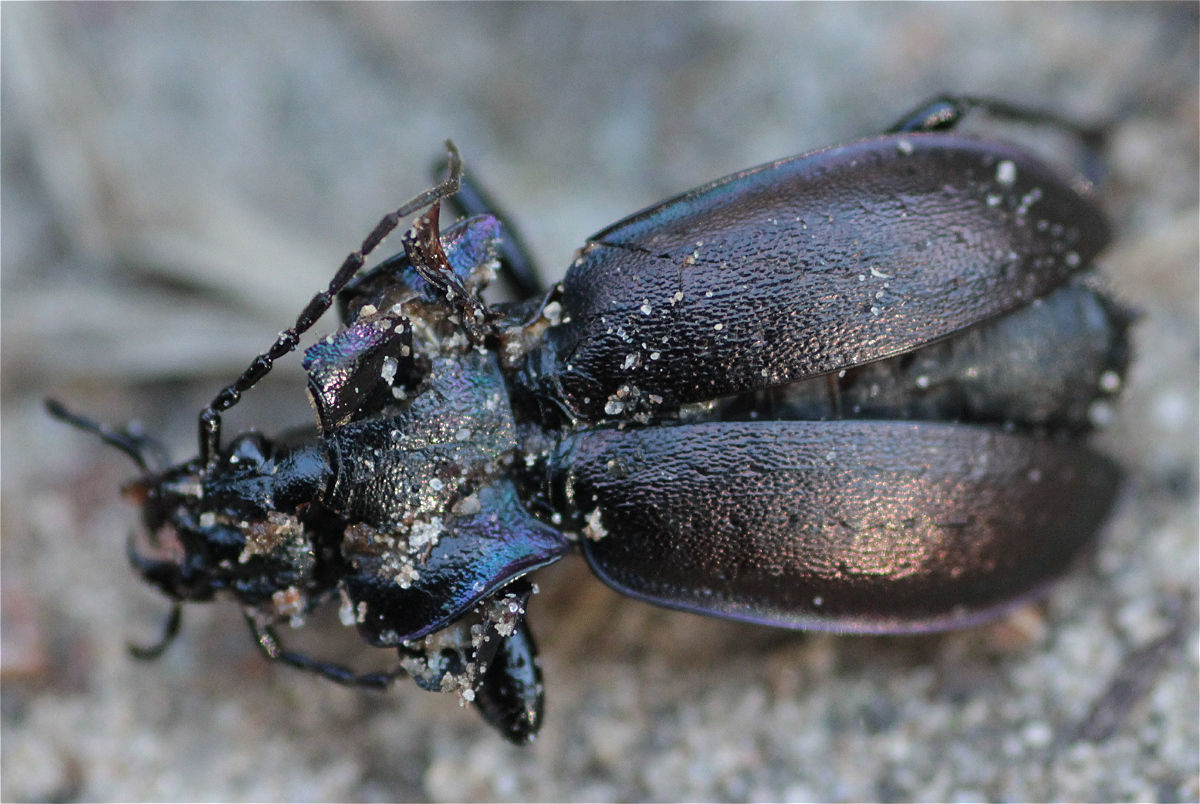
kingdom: Animalia
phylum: Arthropoda
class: Insecta
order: Coleoptera
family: Carabidae
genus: Carabus
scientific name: Carabus nemoralis
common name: European ground beetle
